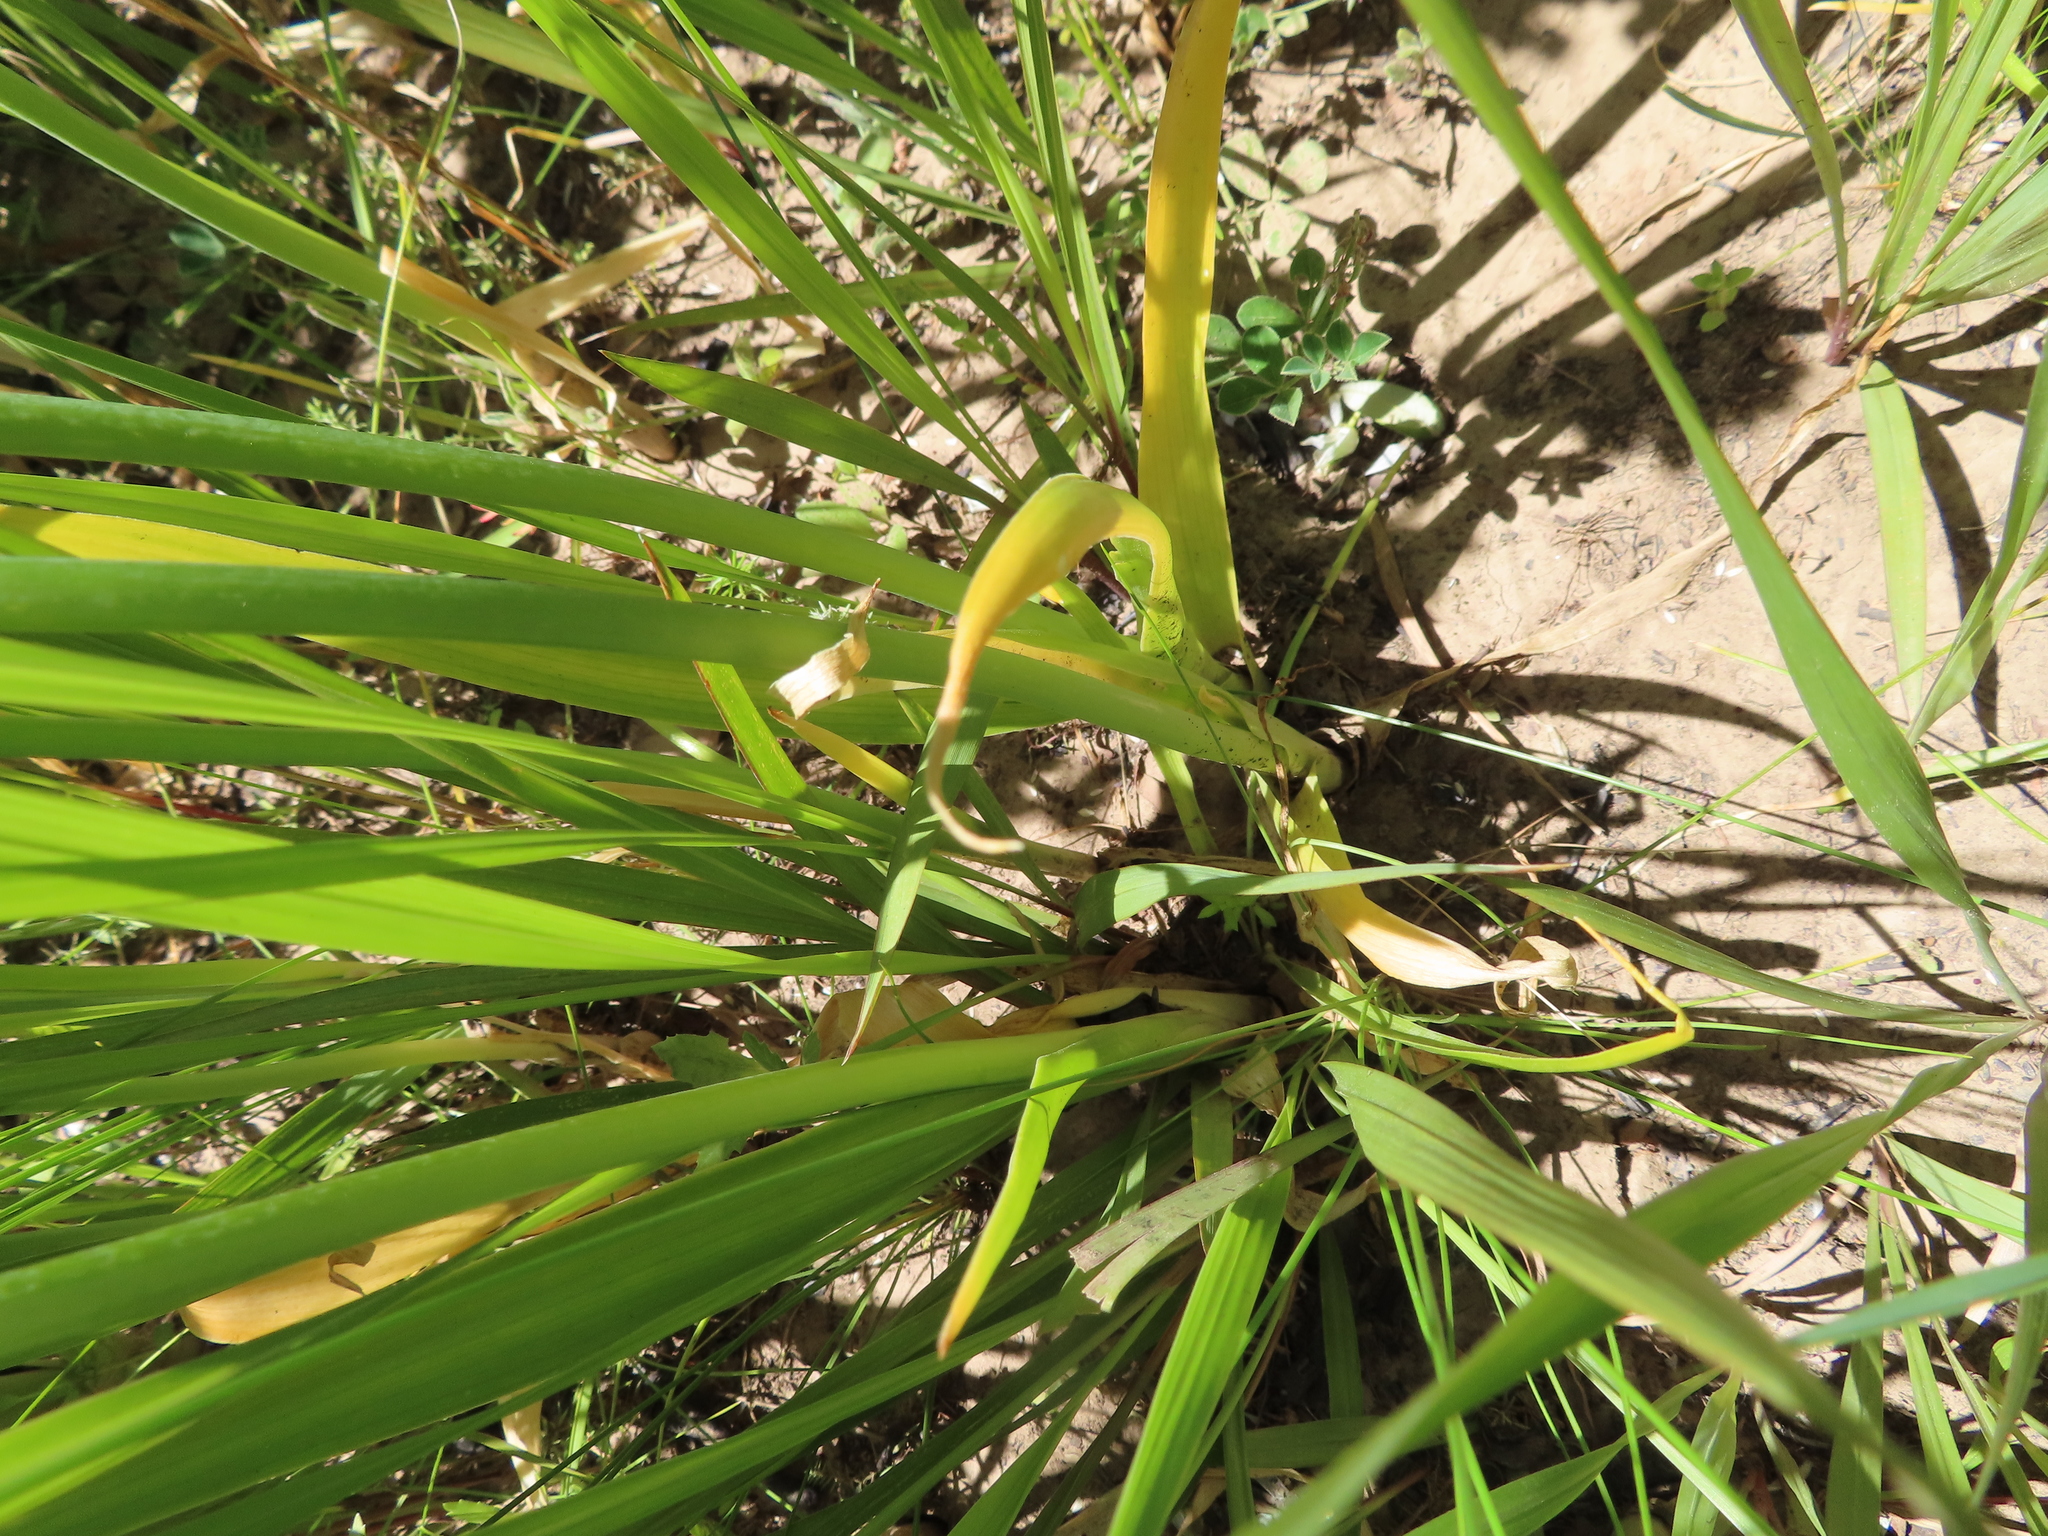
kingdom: Plantae
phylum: Tracheophyta
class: Liliopsida
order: Asparagales
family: Asparagaceae
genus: Ornithogalum
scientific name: Ornithogalum thyrsoides
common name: Chincherinchee
